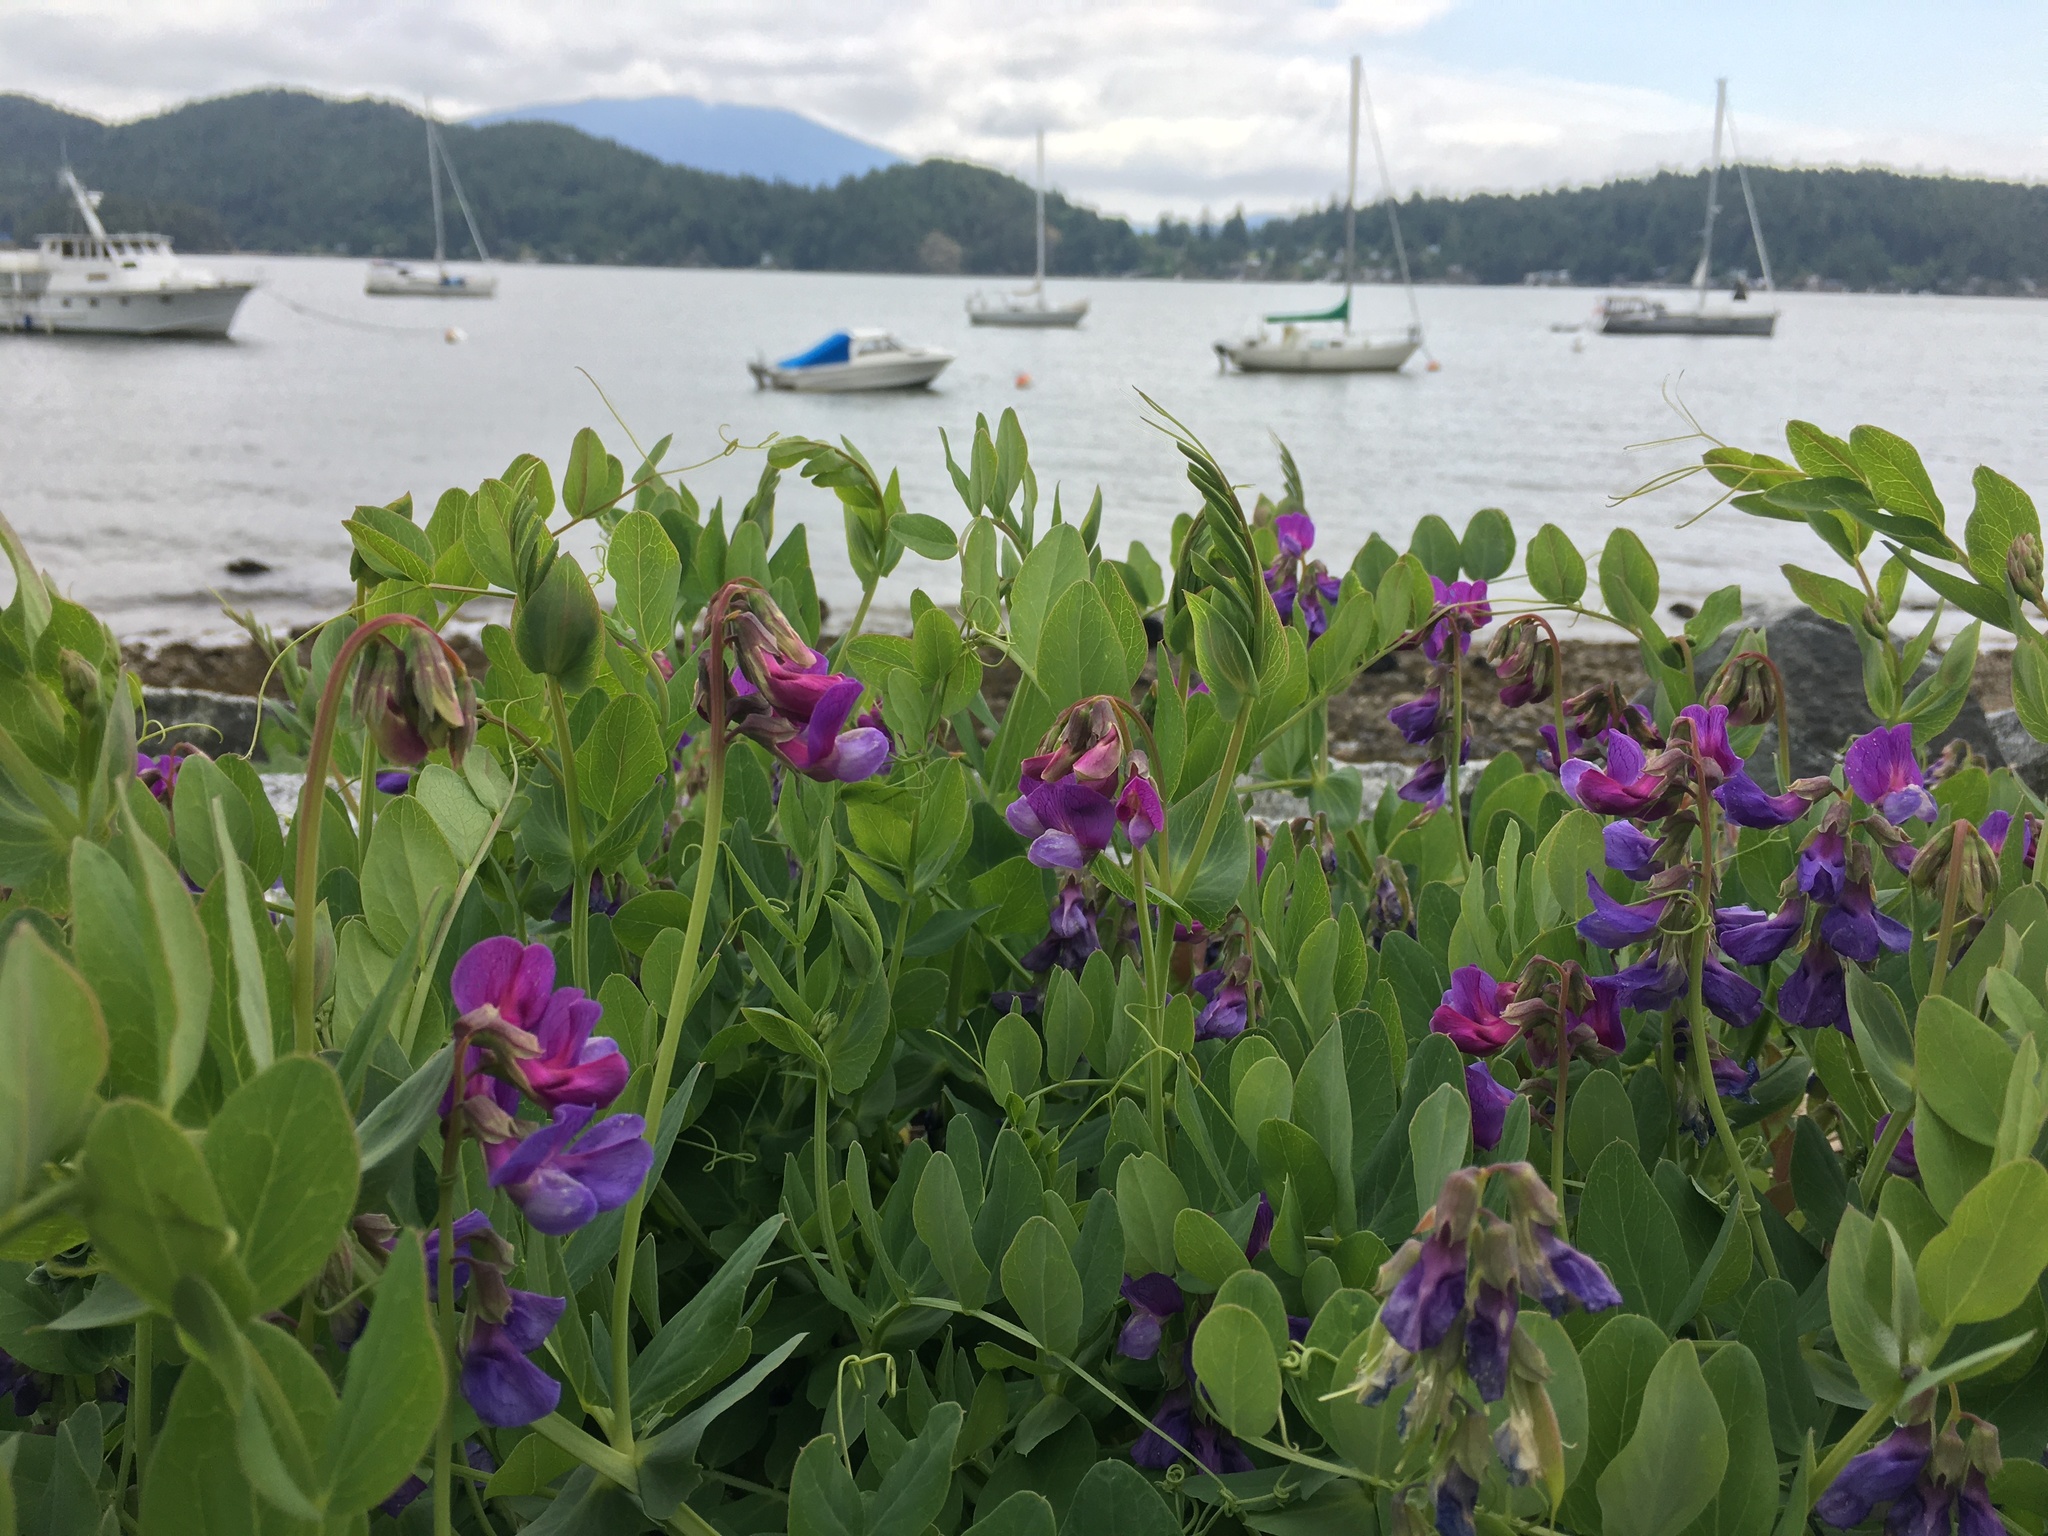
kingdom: Plantae
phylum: Tracheophyta
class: Magnoliopsida
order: Fabales
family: Fabaceae
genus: Lathyrus
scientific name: Lathyrus japonicus
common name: Sea pea
